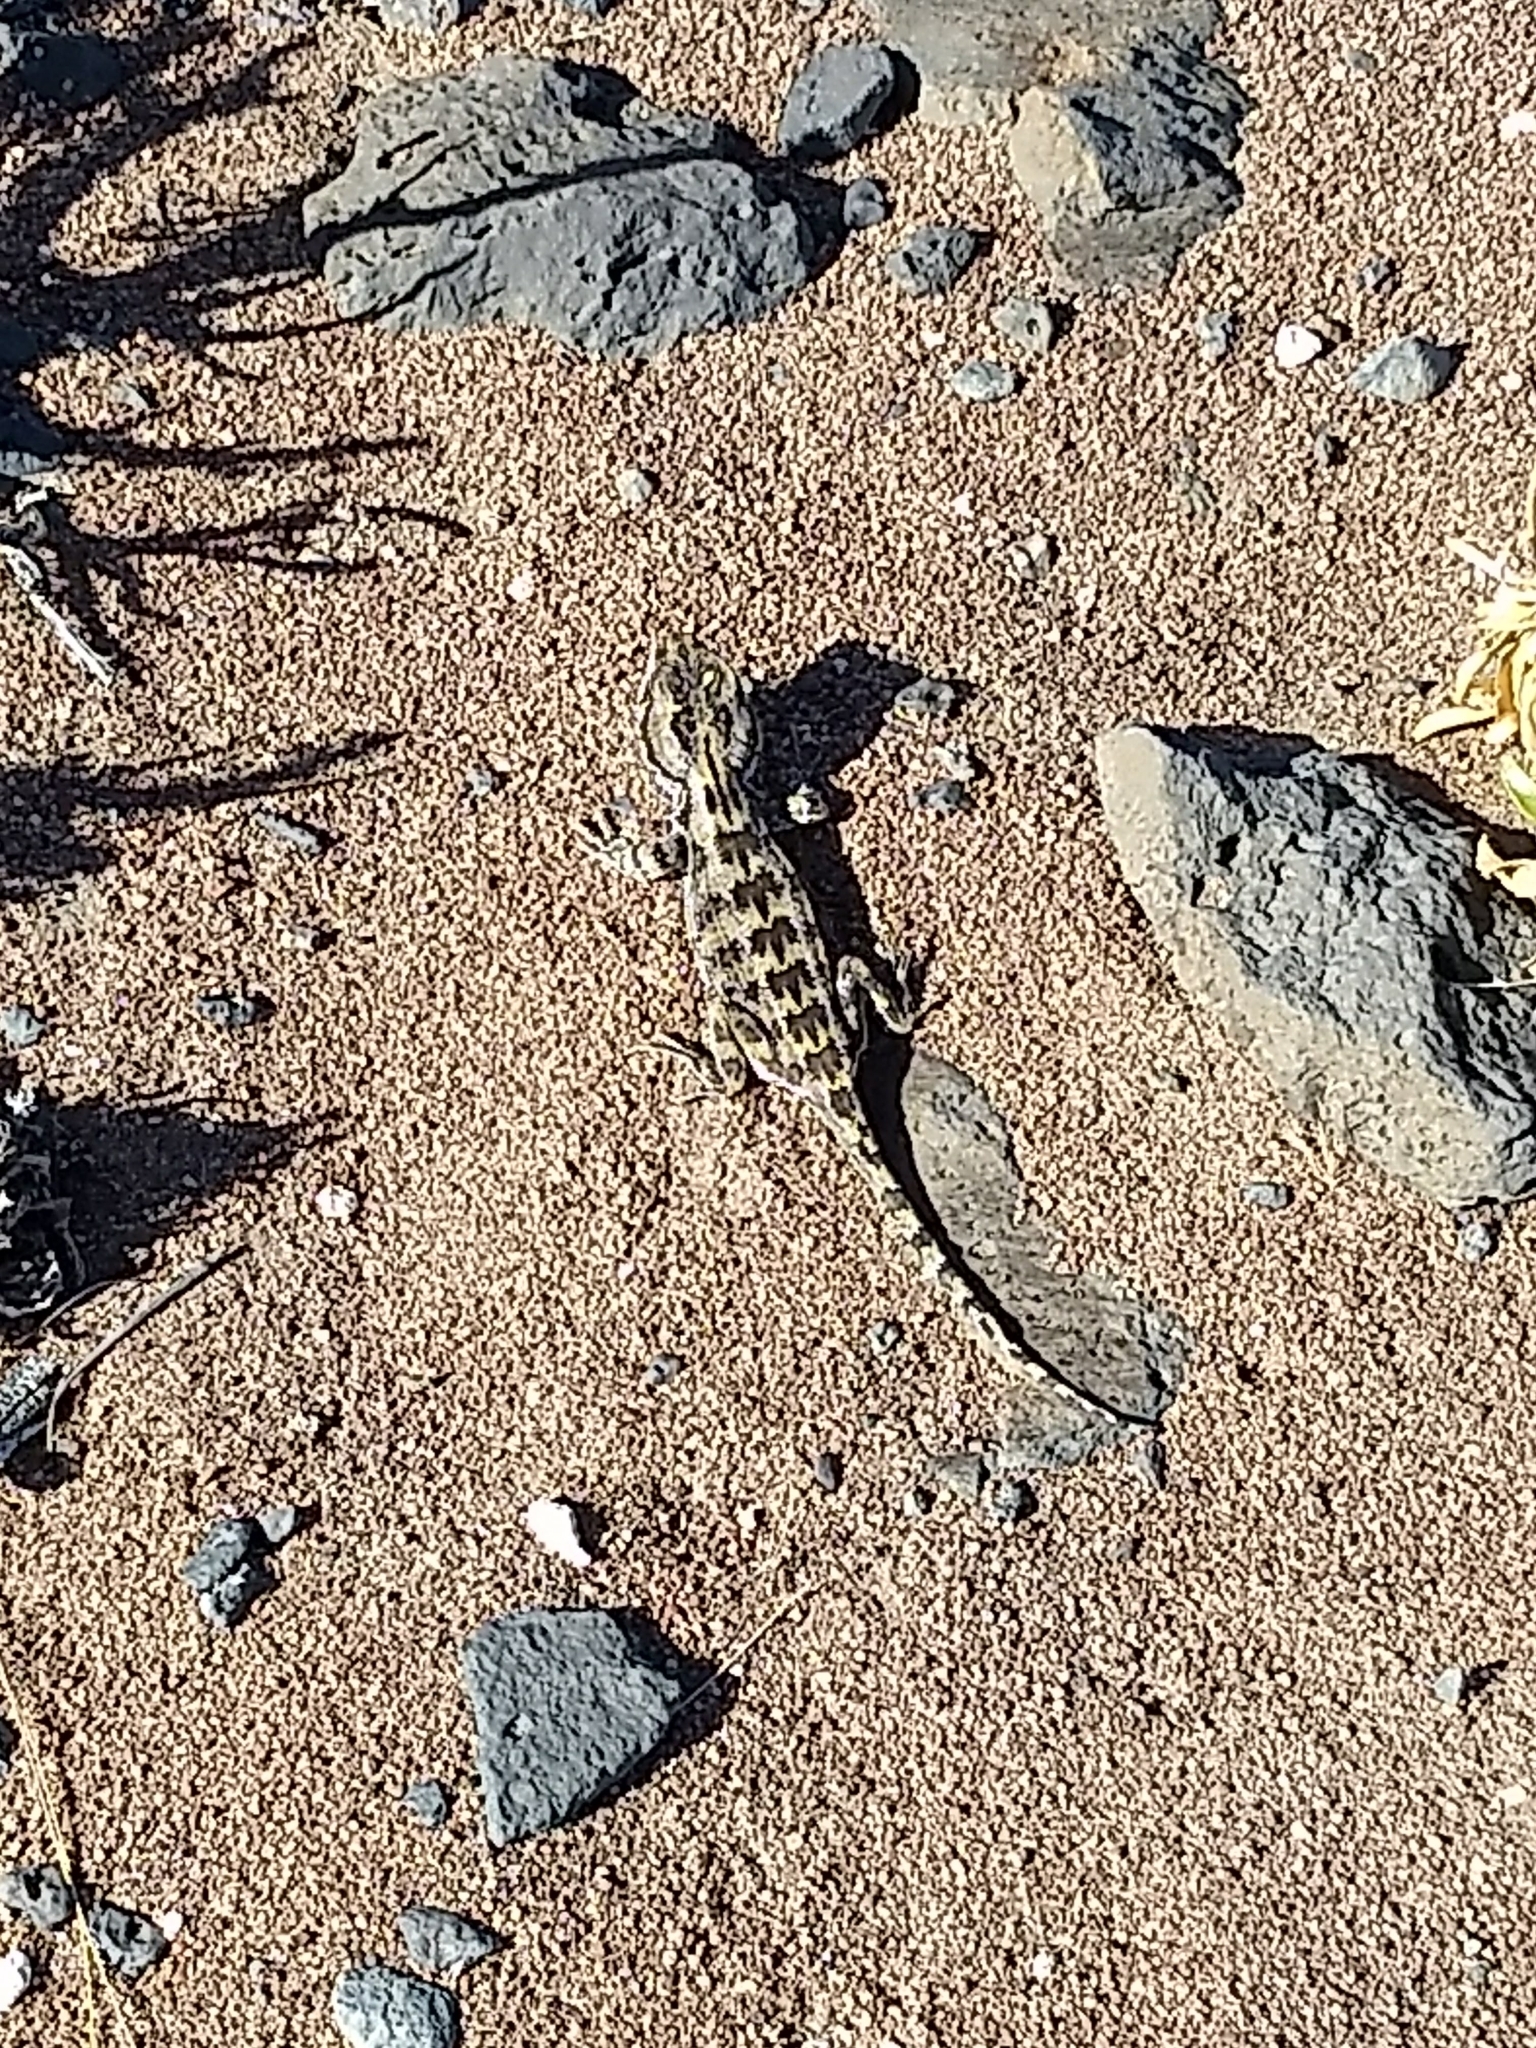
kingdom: Animalia
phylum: Chordata
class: Squamata
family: Leiosauridae
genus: Leiosaurus
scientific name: Leiosaurus bellii
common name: Bell's anole
